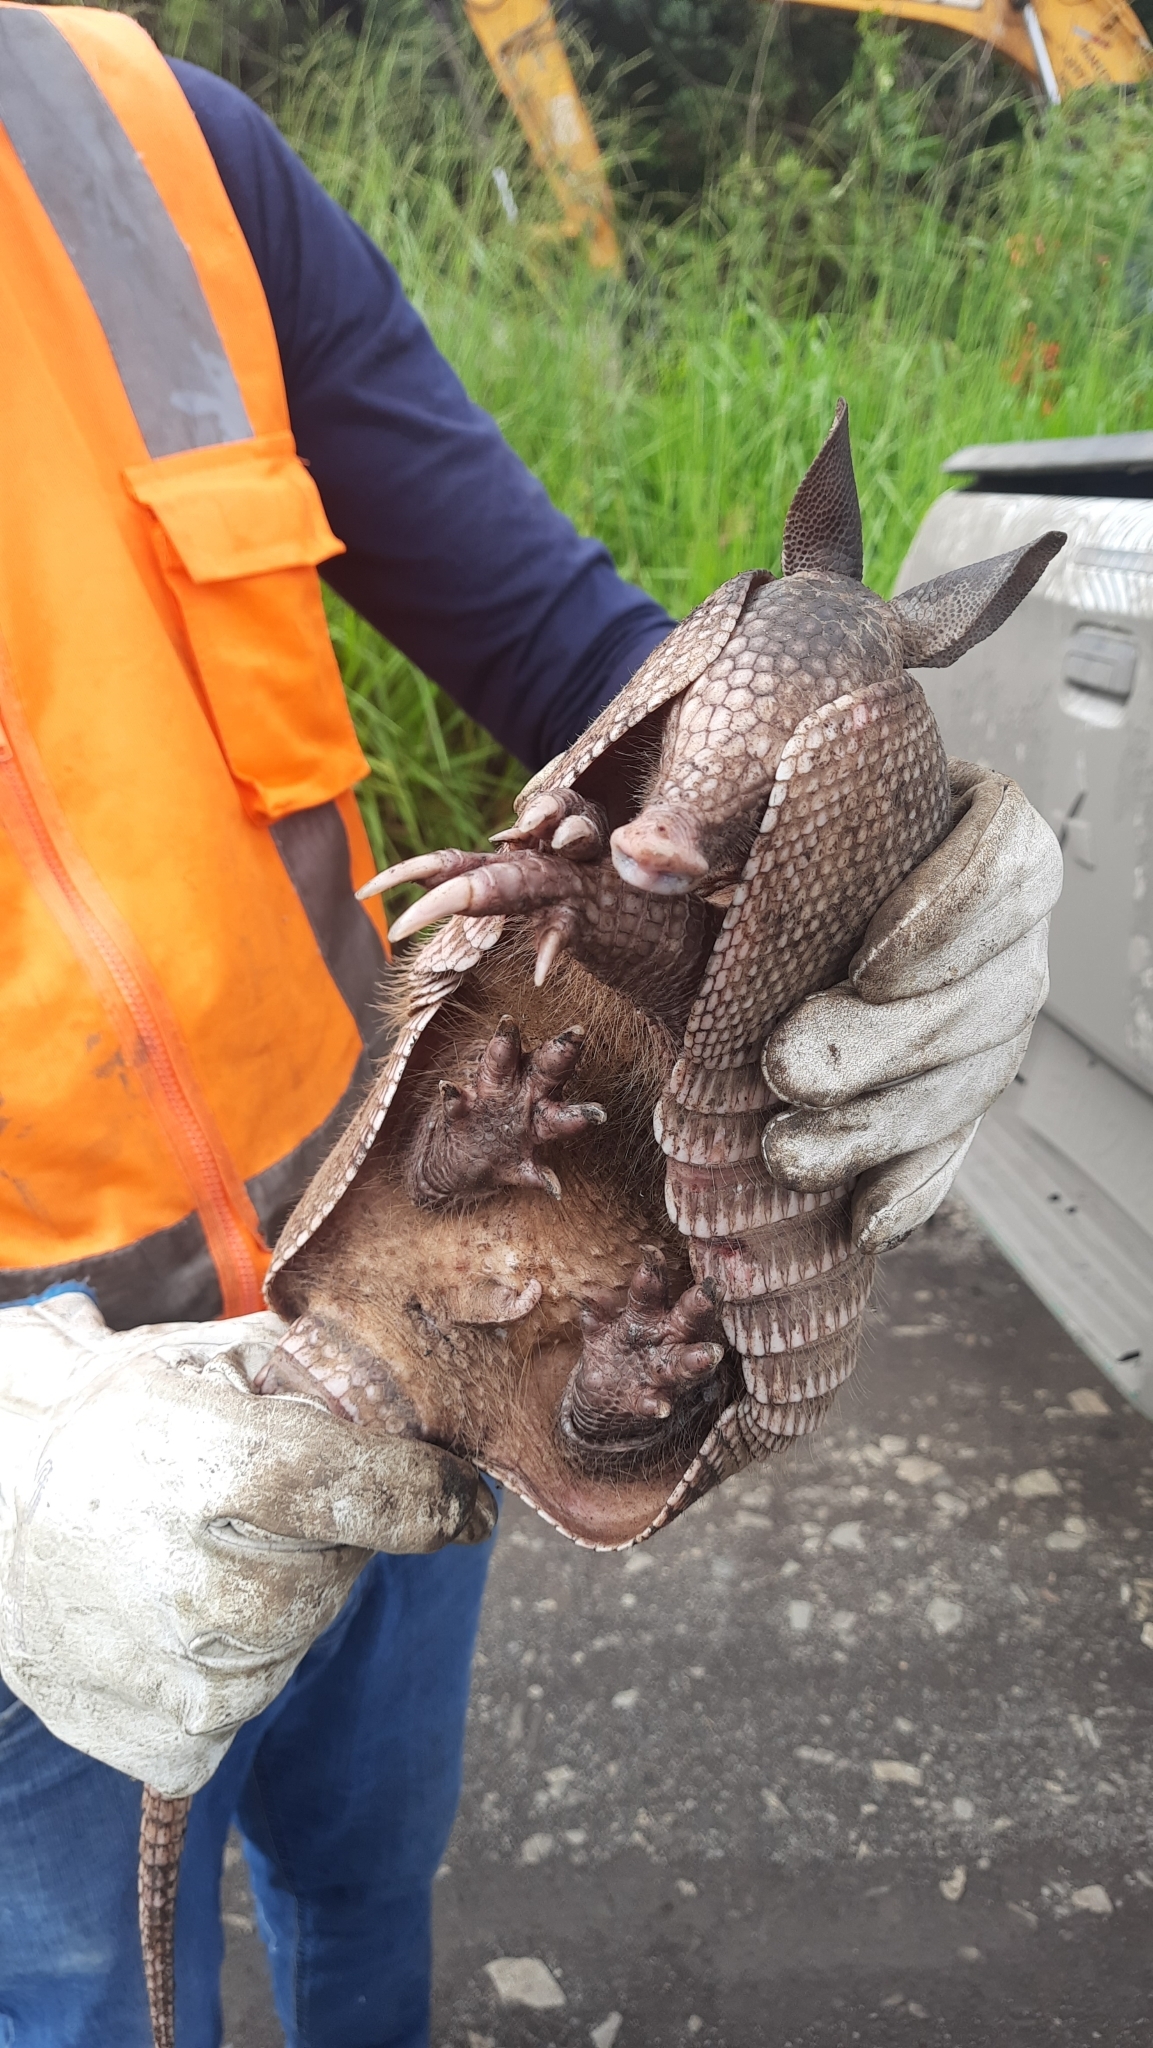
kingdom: Animalia
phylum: Chordata
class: Mammalia
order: Cingulata
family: Dasypodidae
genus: Dasypus
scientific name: Dasypus novemcinctus
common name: Nine-banded armadillo
